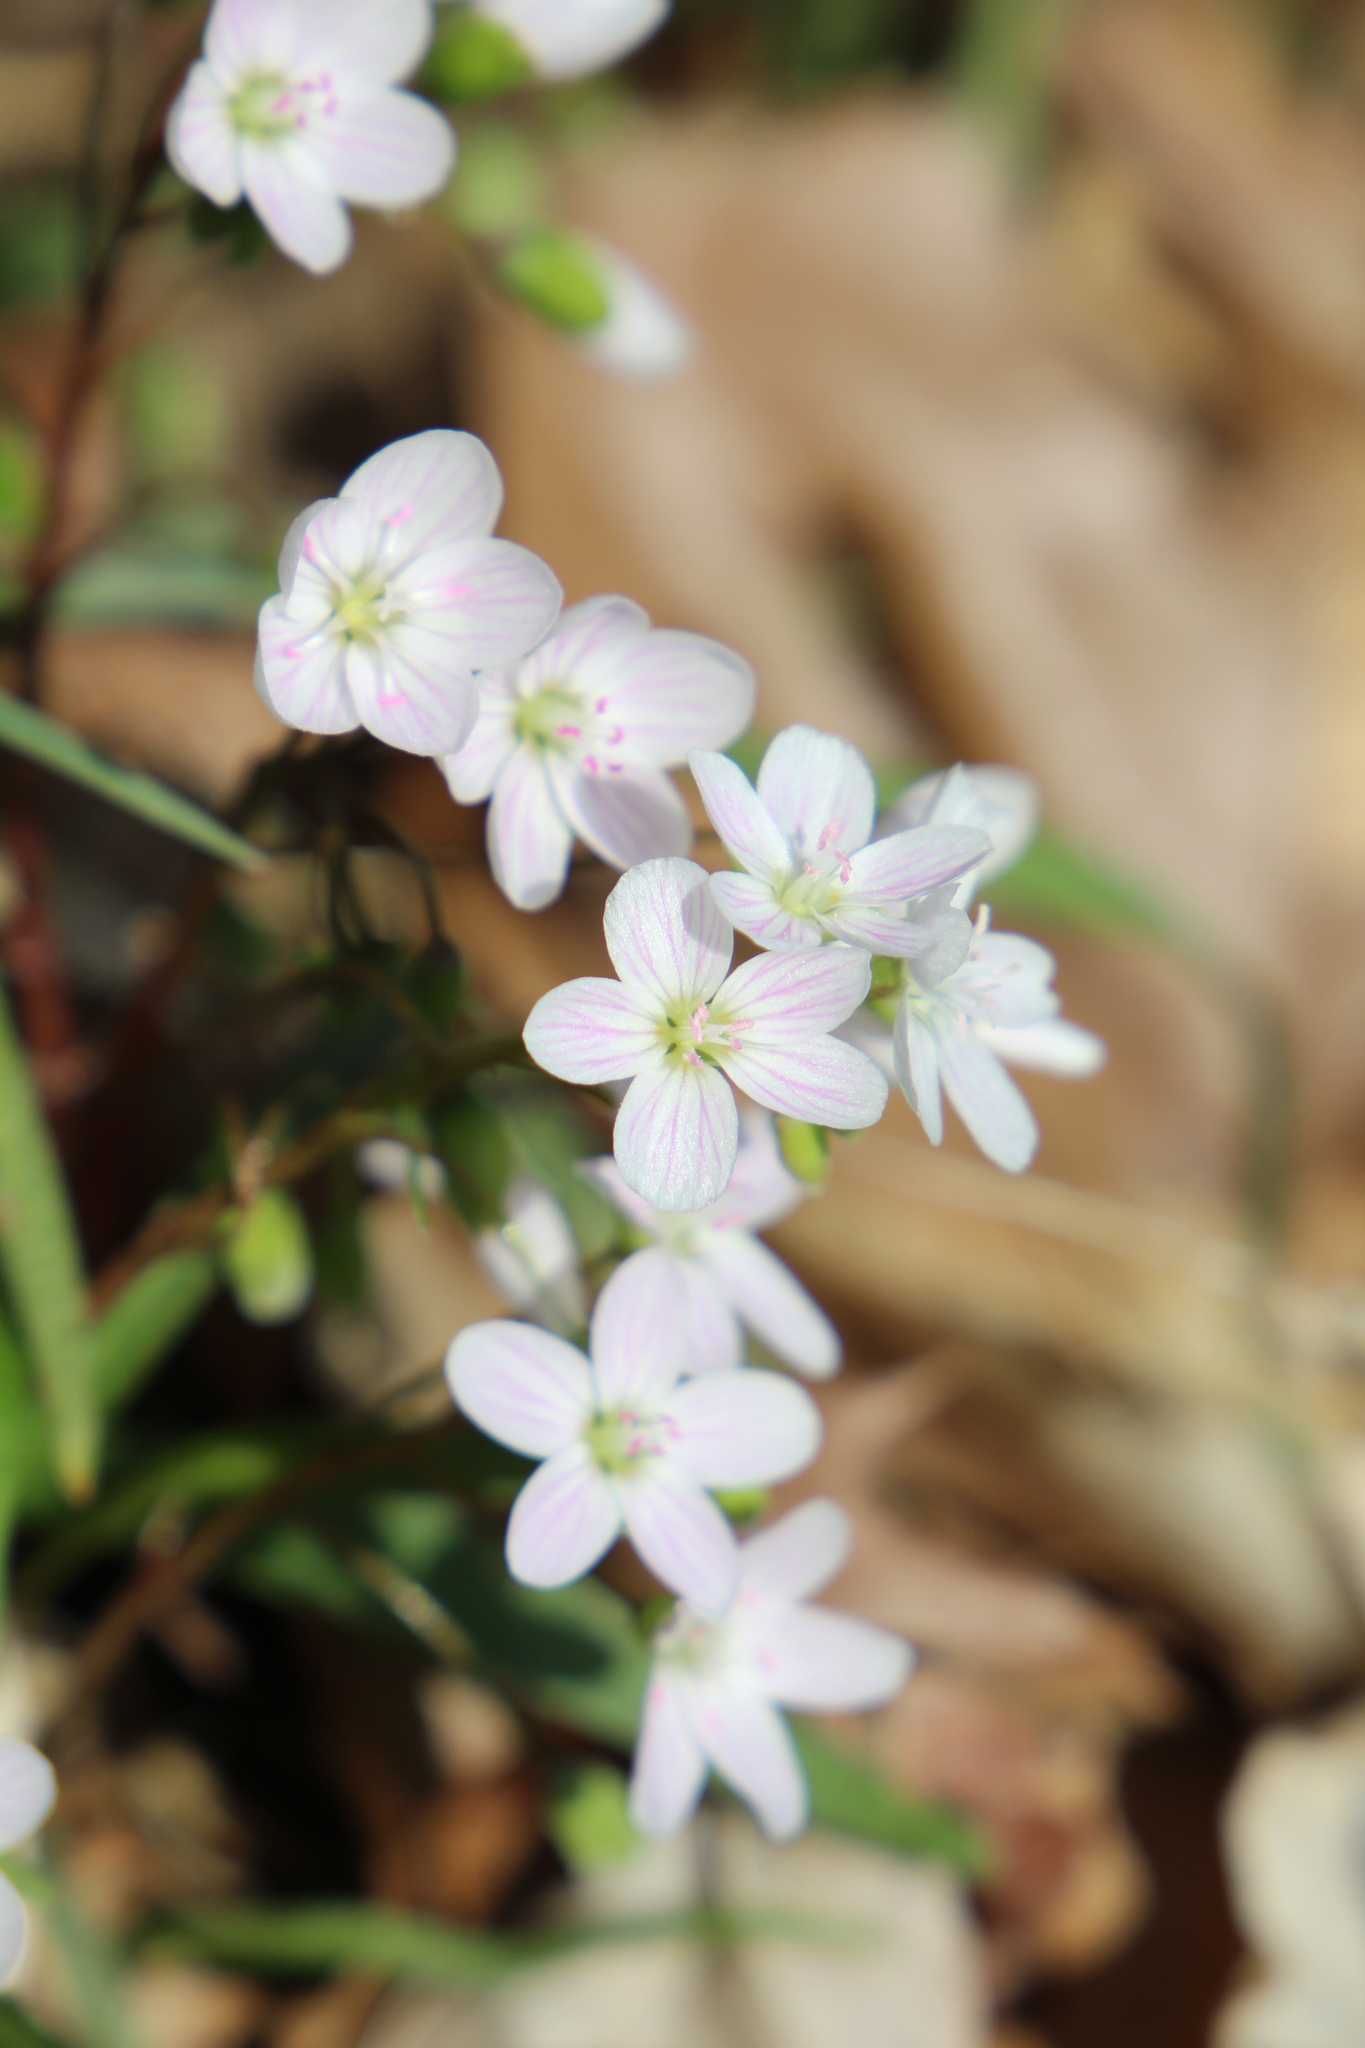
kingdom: Plantae
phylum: Tracheophyta
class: Magnoliopsida
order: Caryophyllales
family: Montiaceae
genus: Claytonia
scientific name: Claytonia virginica
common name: Virginia springbeauty
